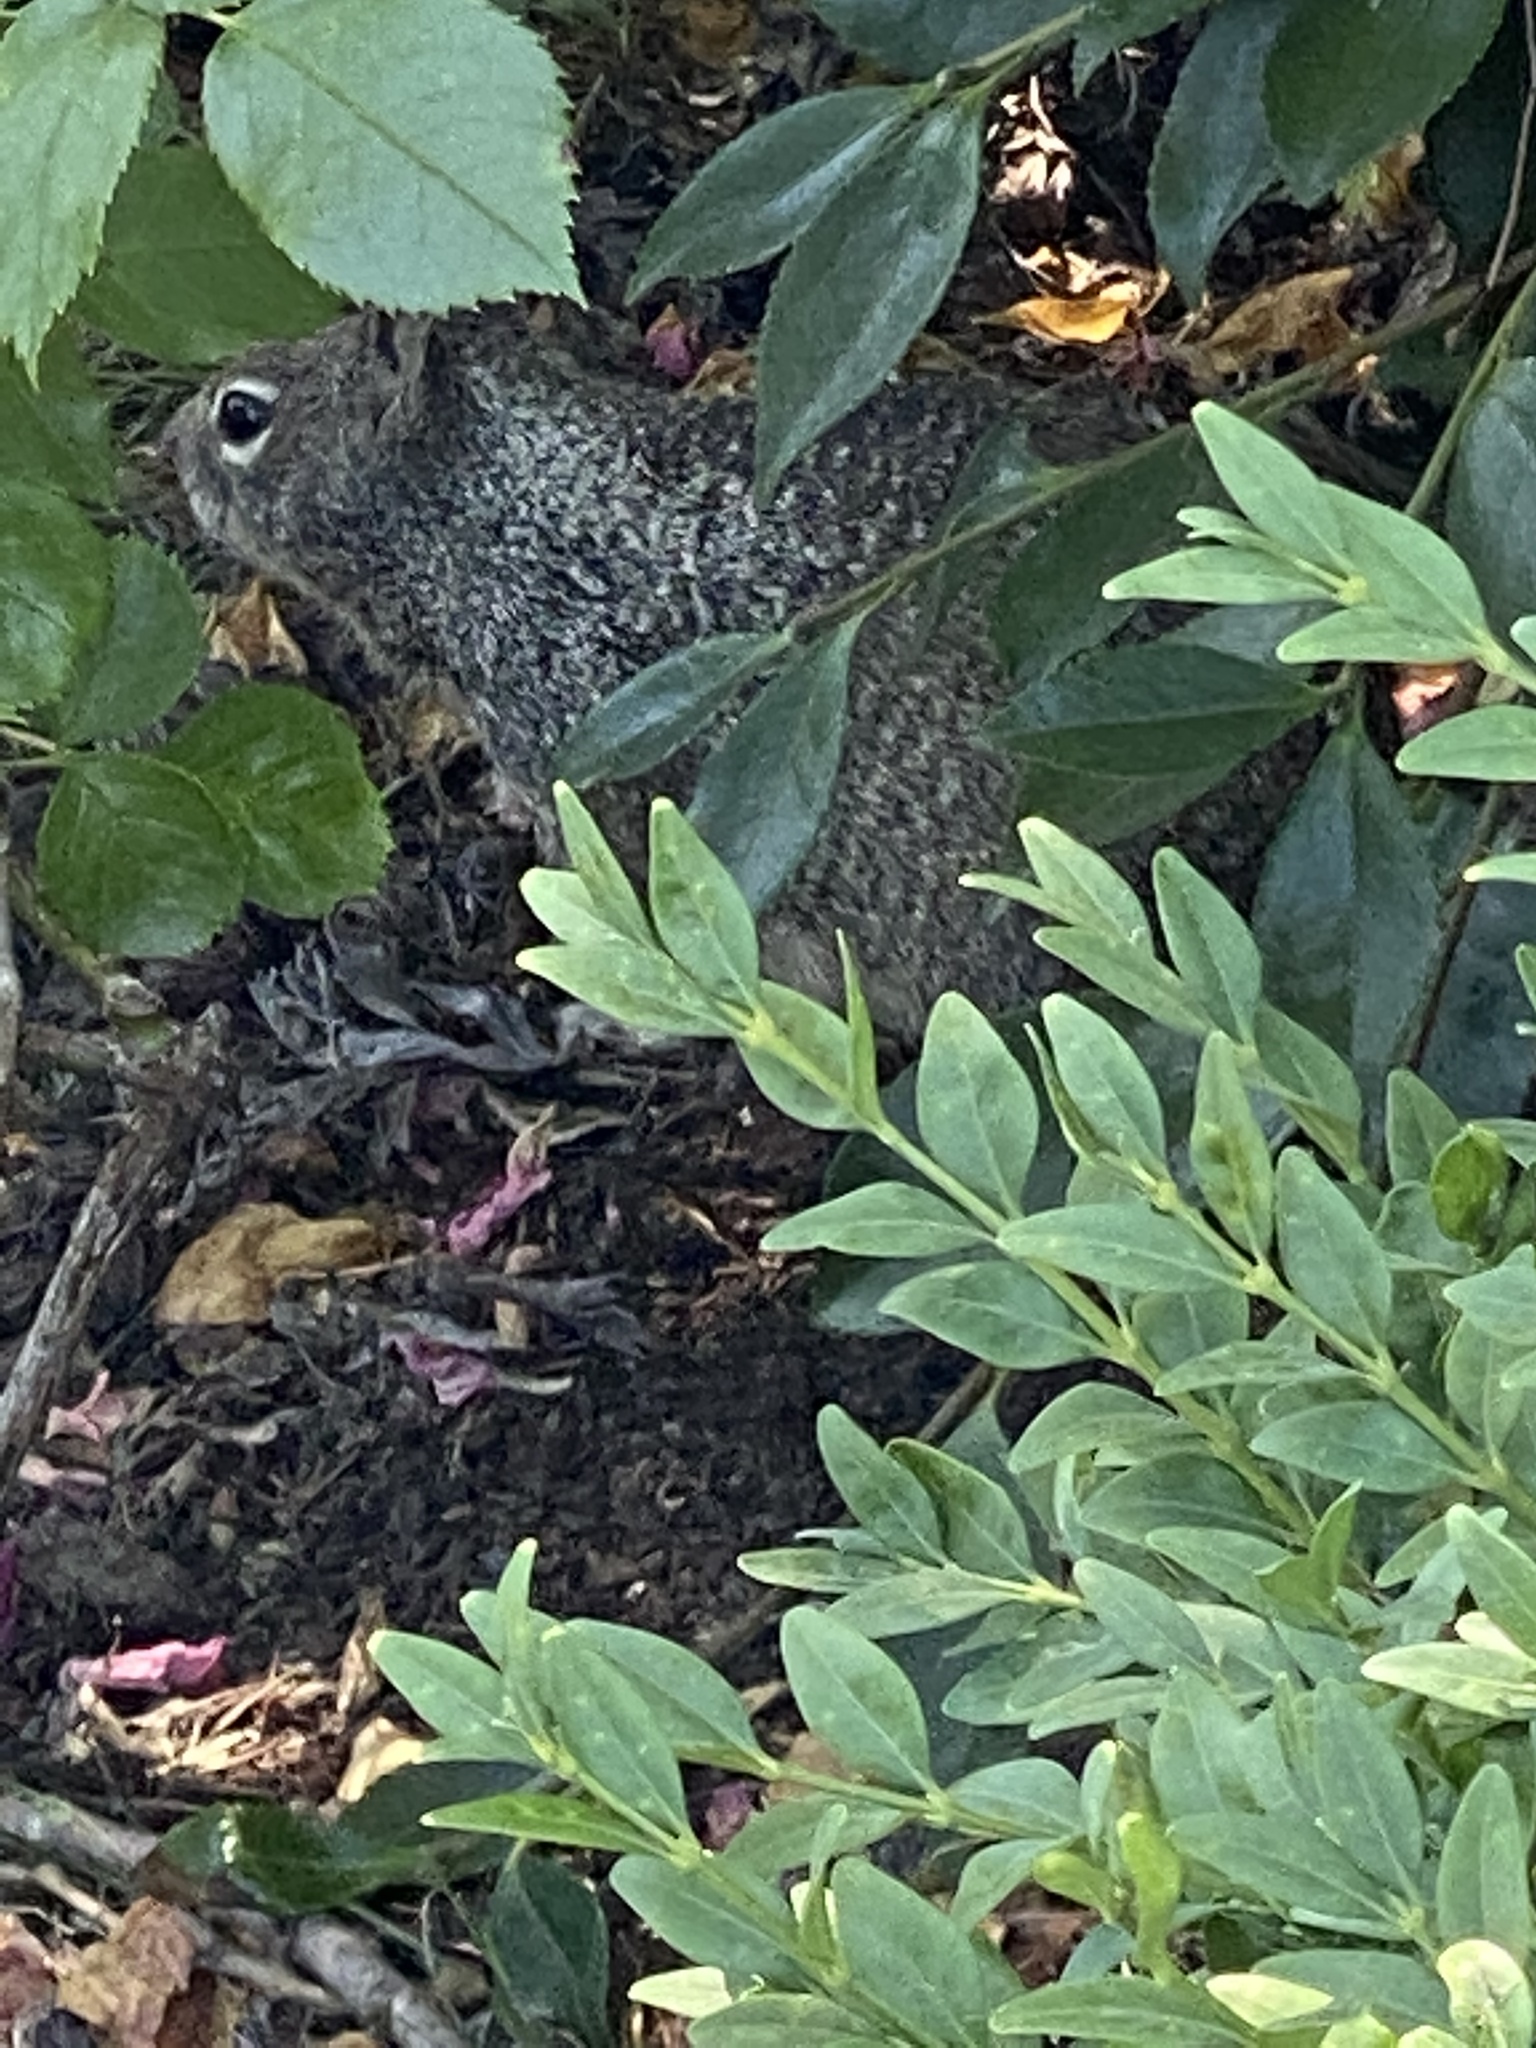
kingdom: Animalia
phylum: Chordata
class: Mammalia
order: Rodentia
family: Sciuridae
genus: Otospermophilus
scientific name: Otospermophilus beecheyi
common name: California ground squirrel
